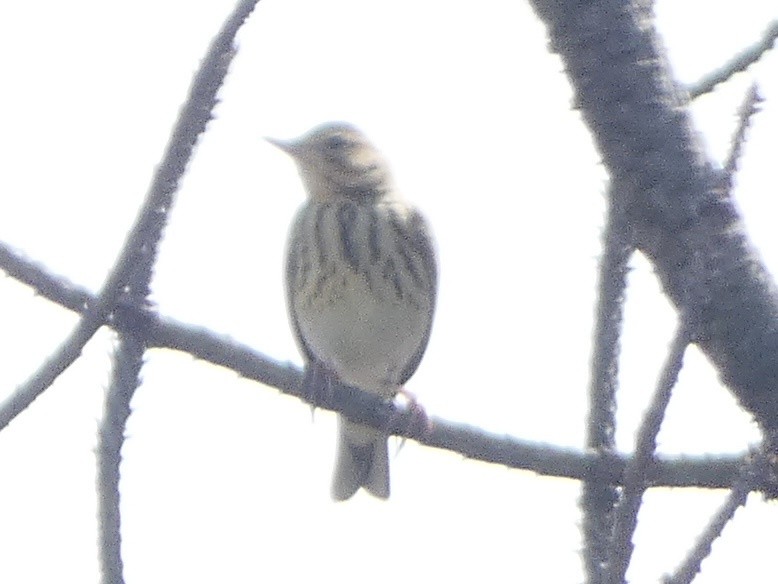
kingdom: Animalia
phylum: Chordata
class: Aves
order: Passeriformes
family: Motacillidae
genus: Anthus
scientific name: Anthus trivialis
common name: Tree pipit
